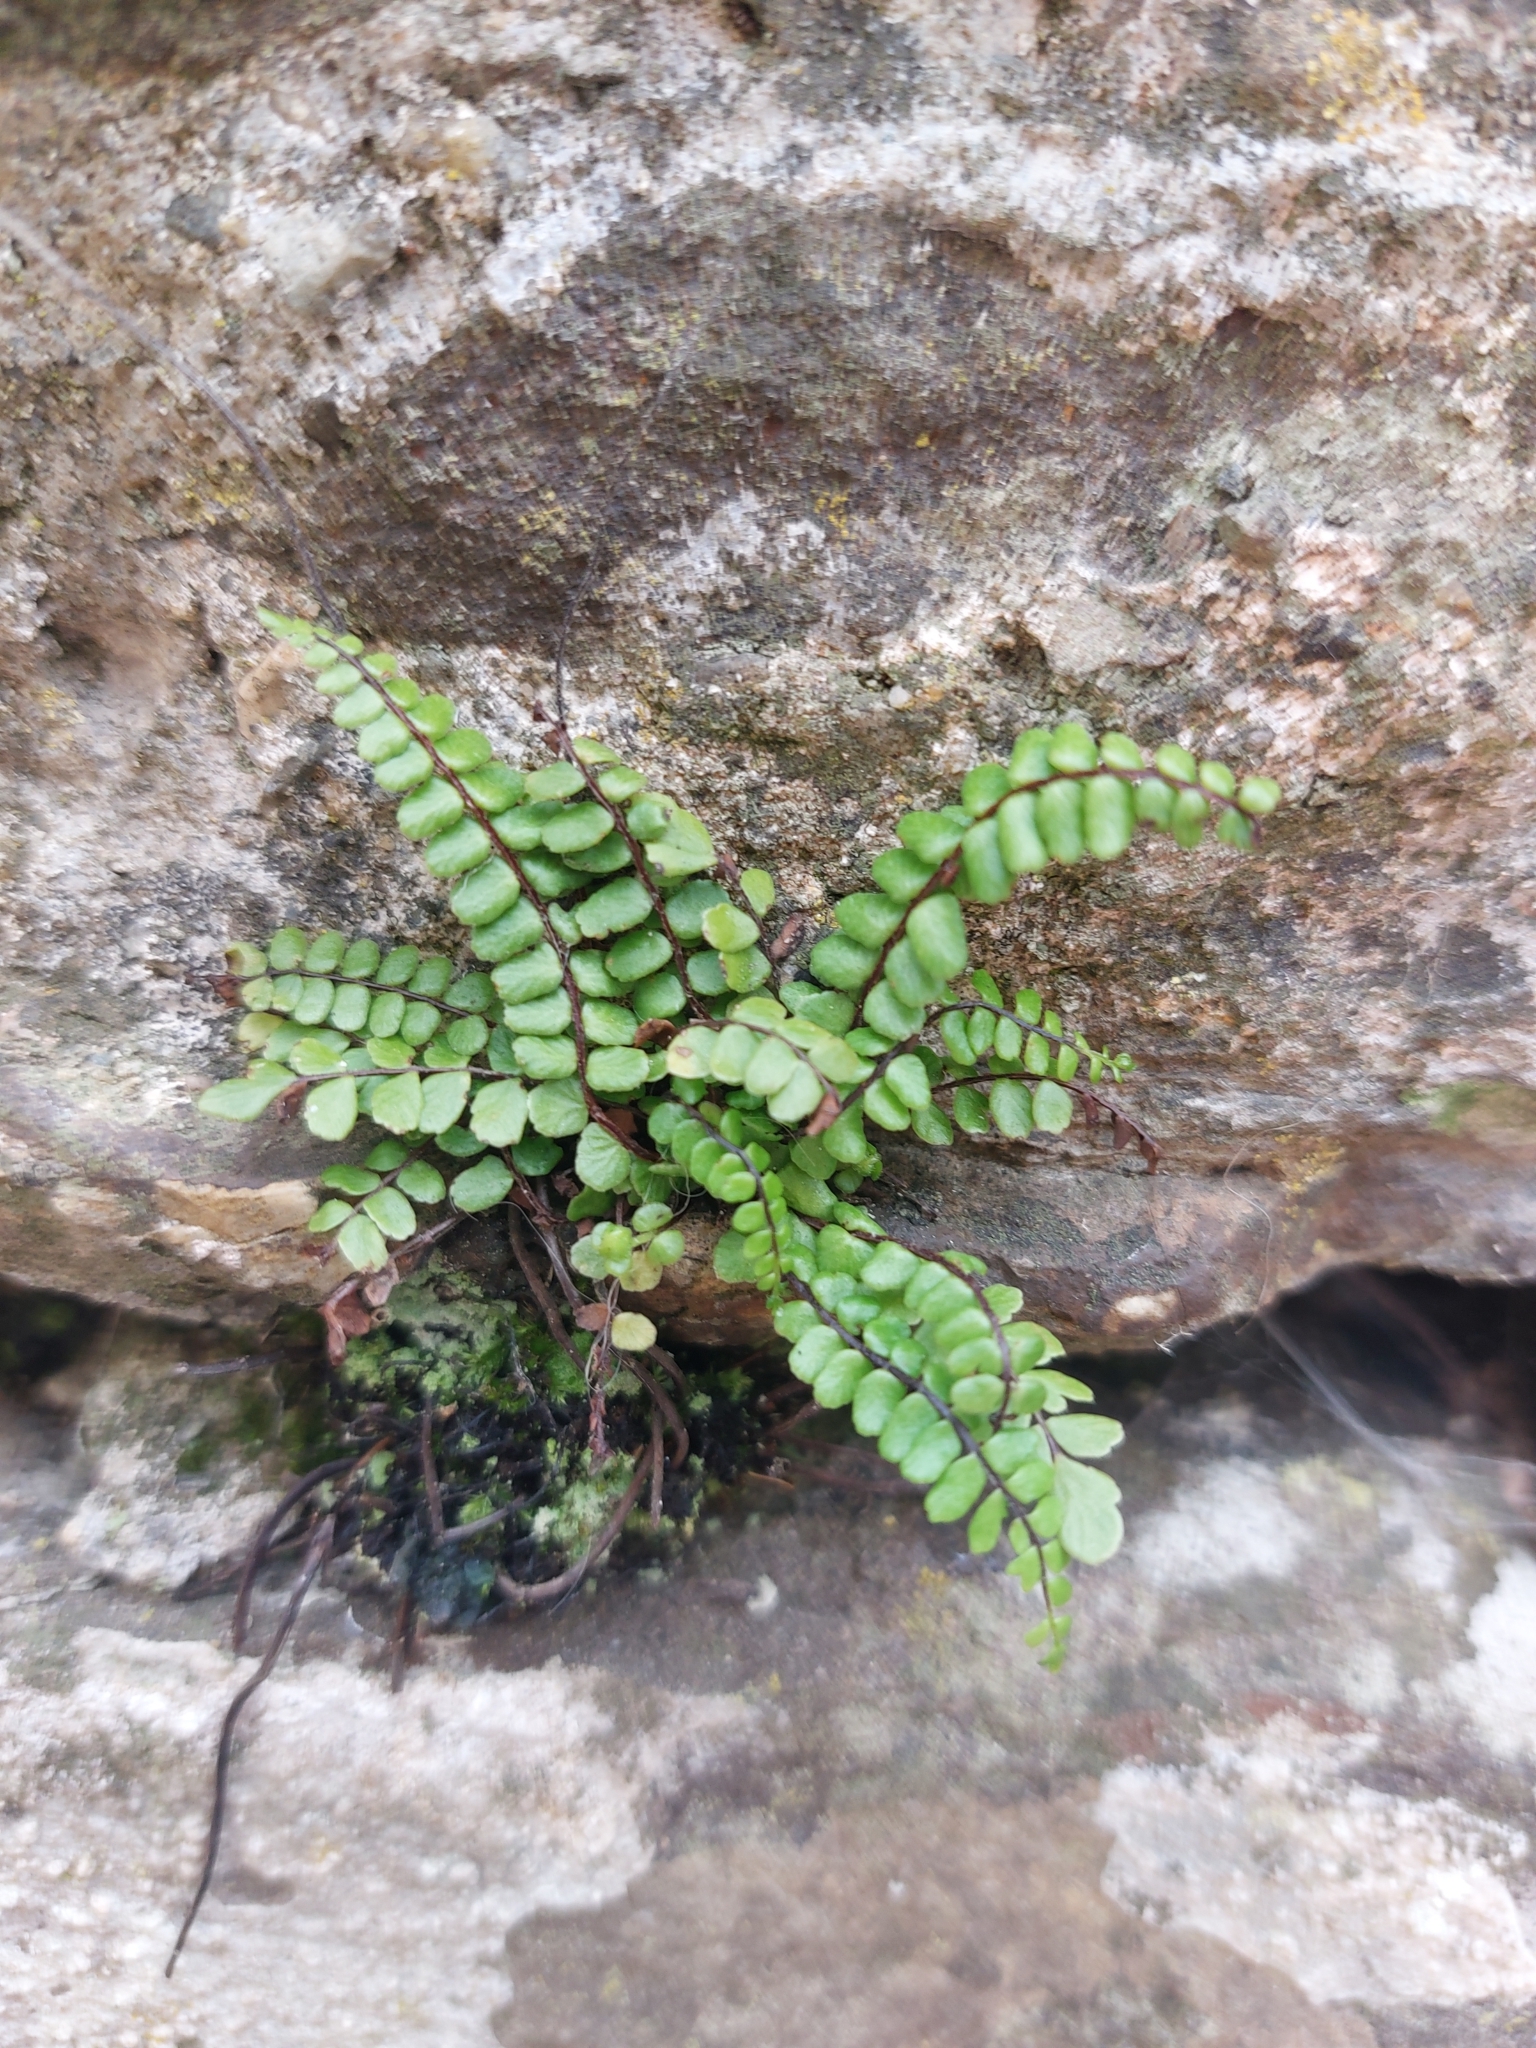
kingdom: Plantae
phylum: Tracheophyta
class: Polypodiopsida
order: Polypodiales
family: Aspleniaceae
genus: Asplenium
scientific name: Asplenium trichomanes
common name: Maidenhair spleenwort
